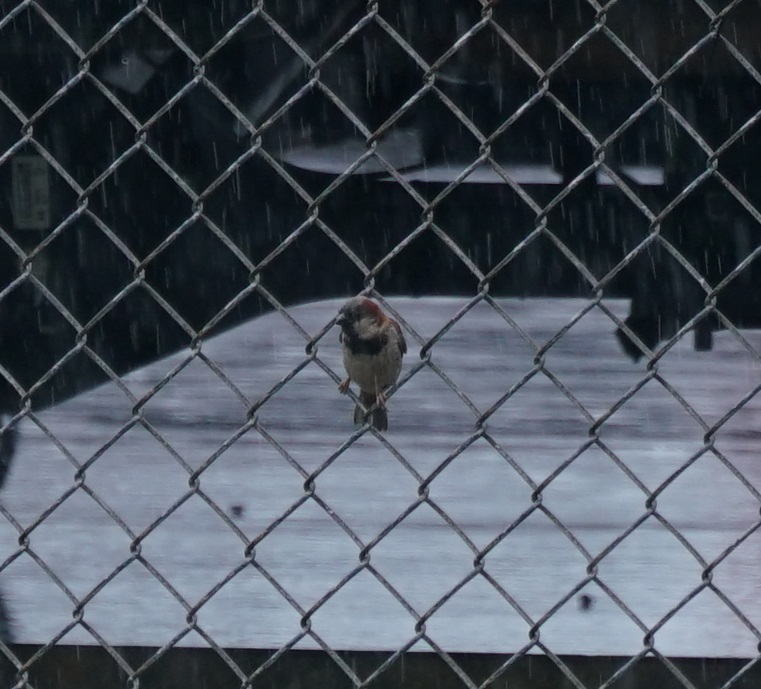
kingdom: Animalia
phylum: Chordata
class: Aves
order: Passeriformes
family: Passeridae
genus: Passer
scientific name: Passer domesticus
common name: House sparrow
